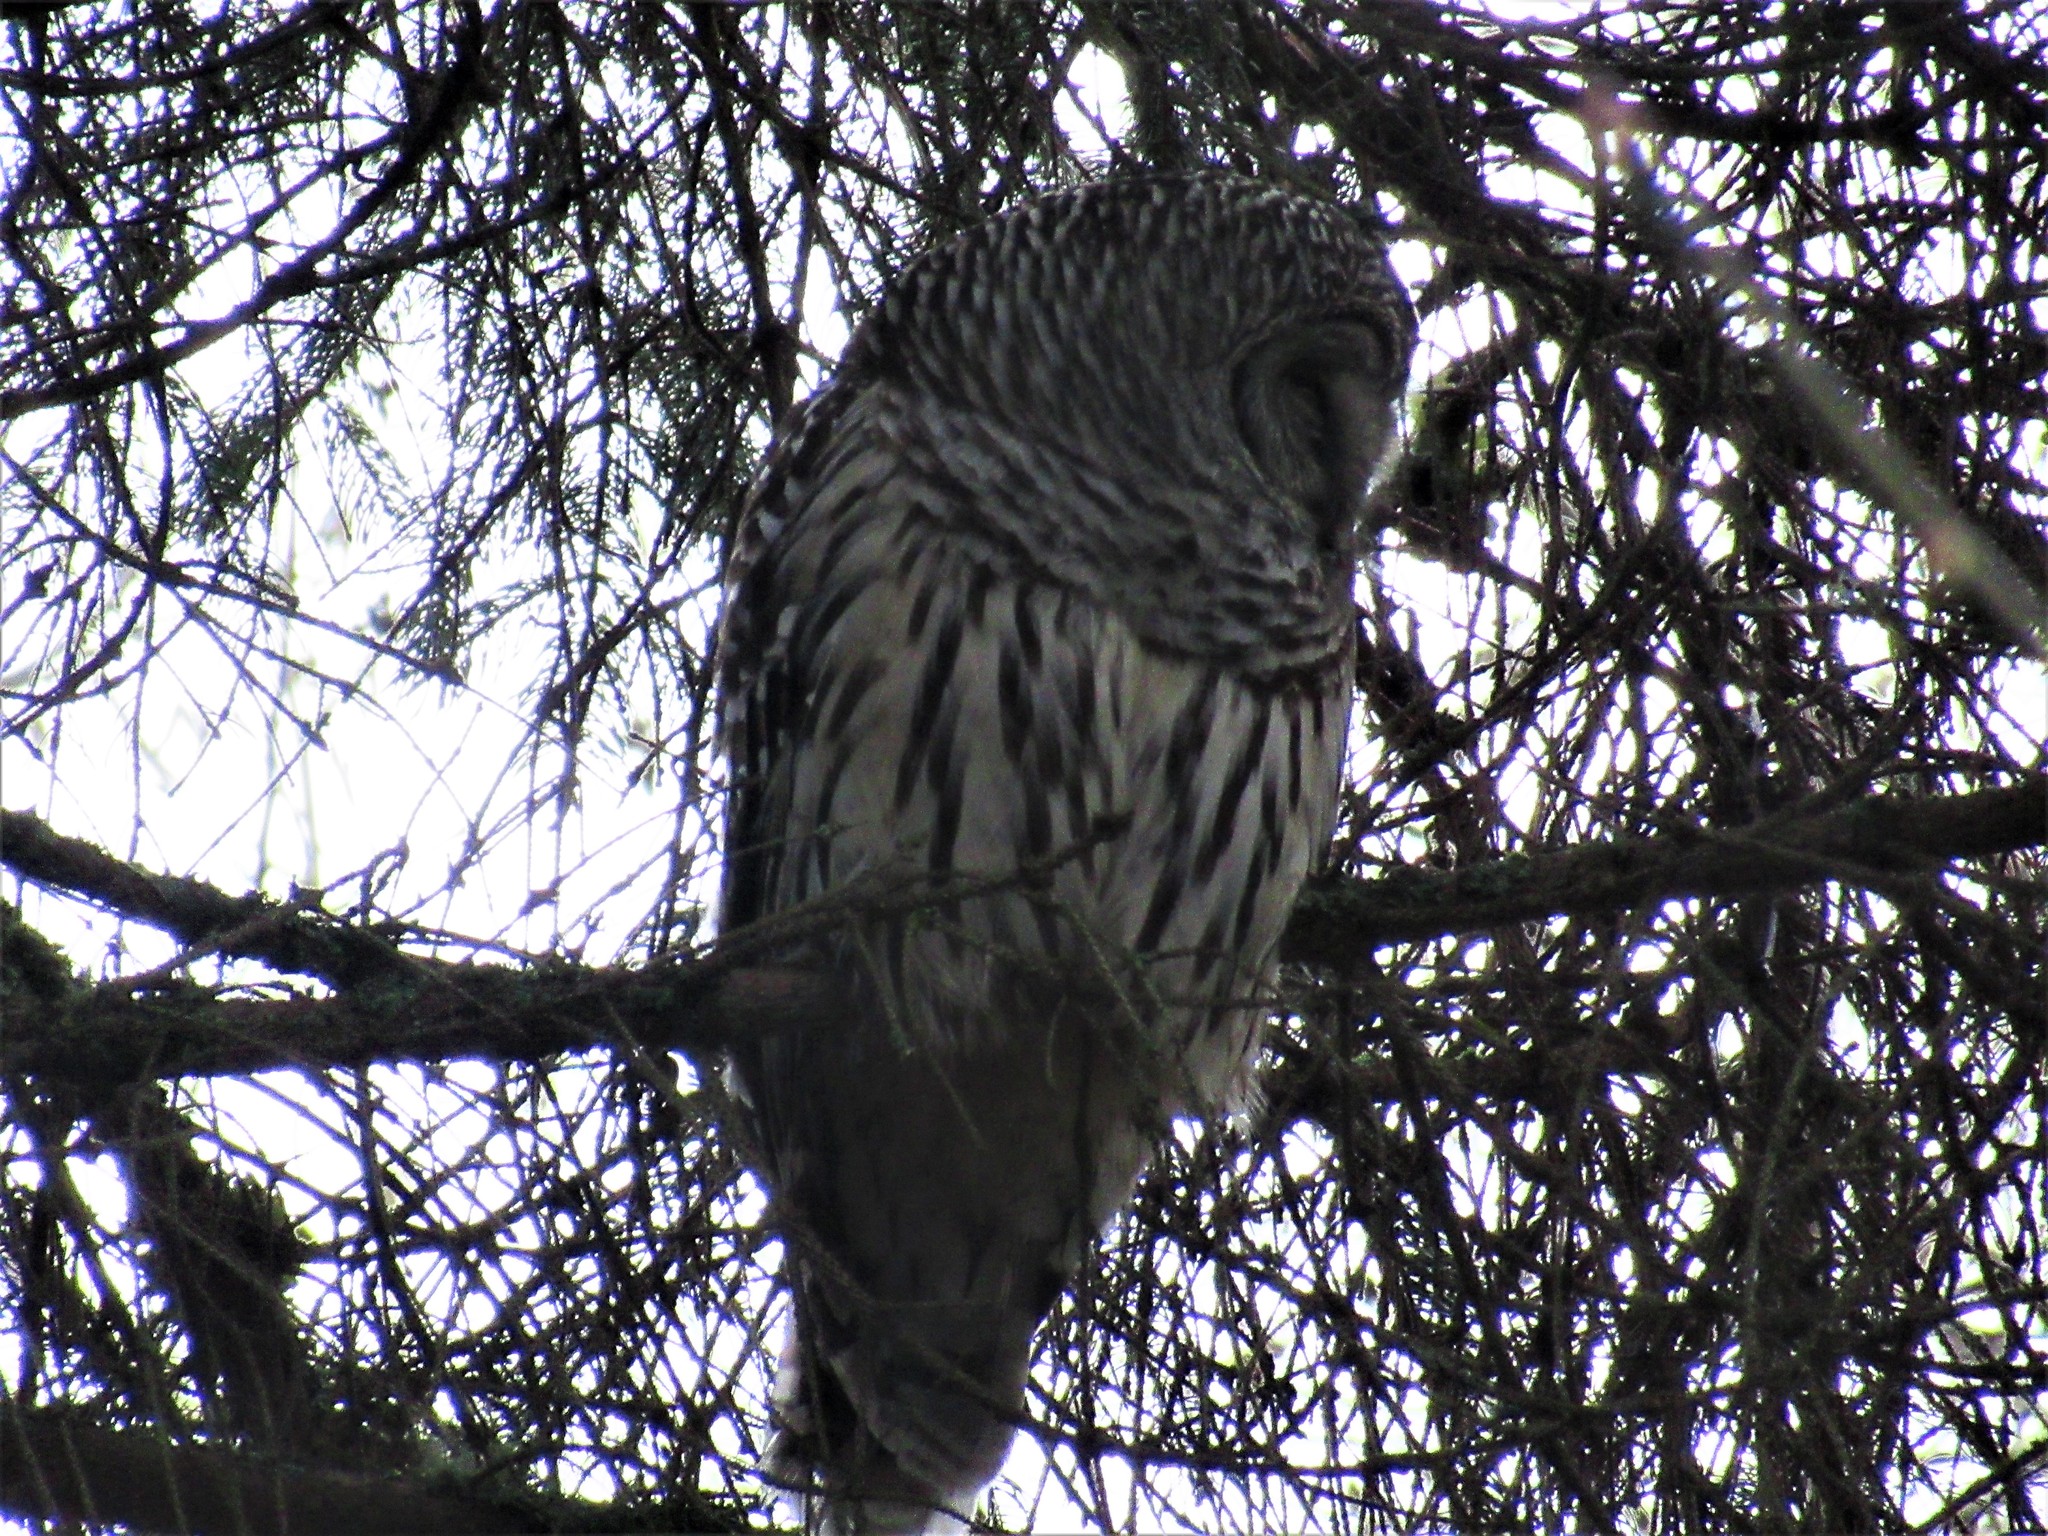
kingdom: Animalia
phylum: Chordata
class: Aves
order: Strigiformes
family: Strigidae
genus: Strix
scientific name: Strix varia
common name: Barred owl
